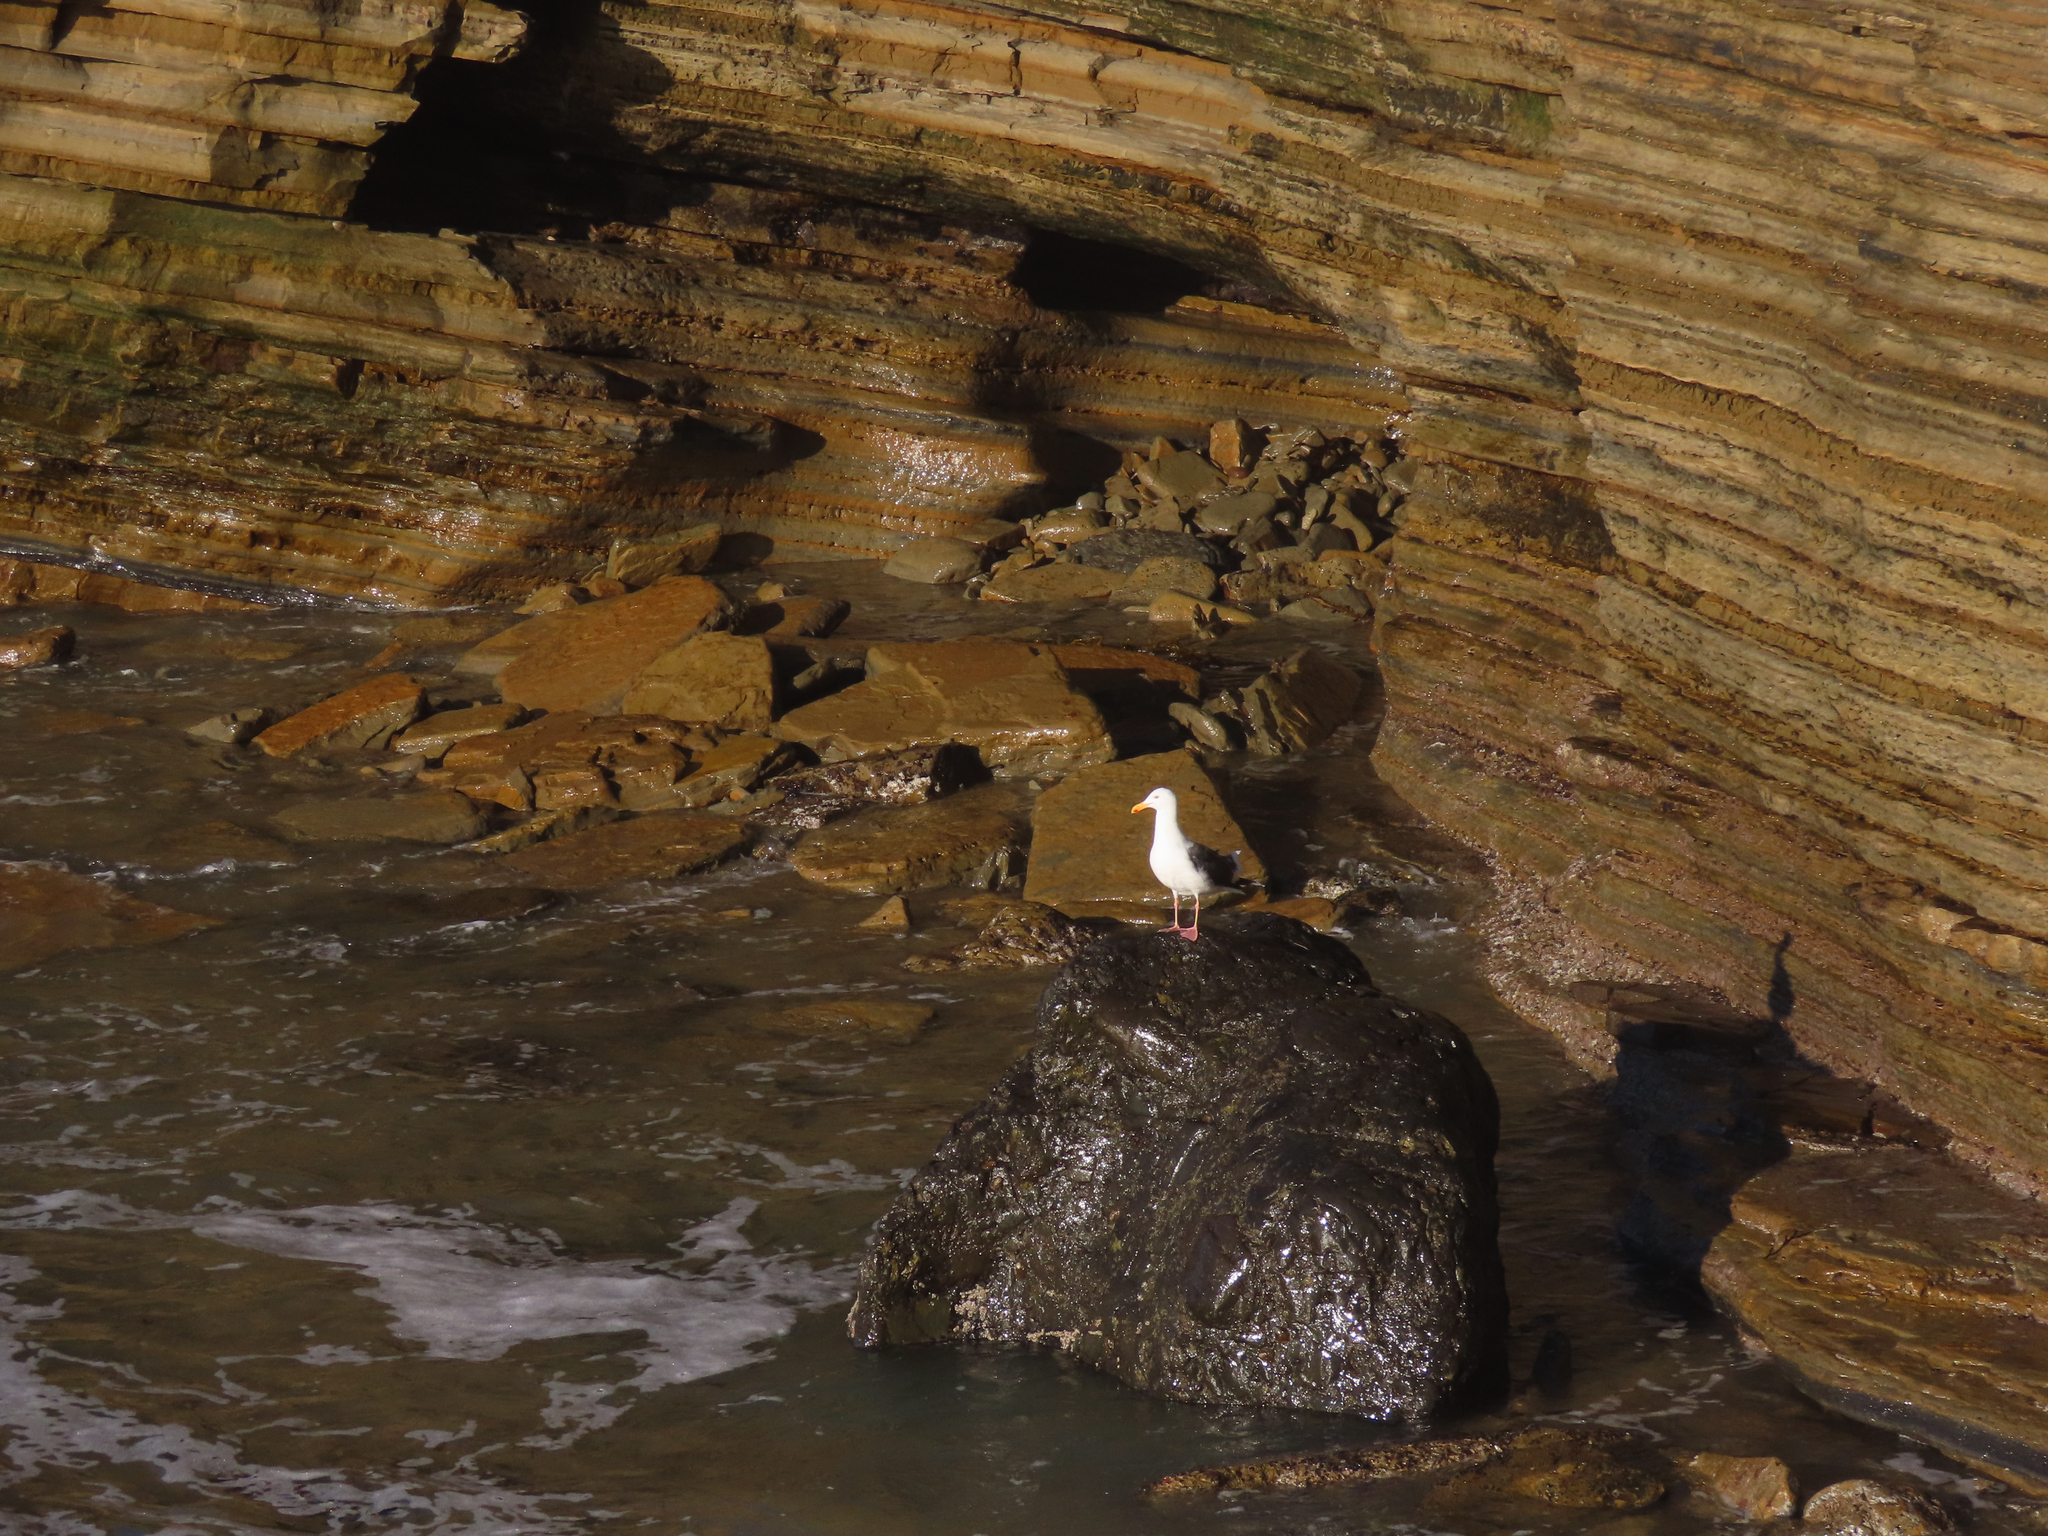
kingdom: Animalia
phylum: Chordata
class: Aves
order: Charadriiformes
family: Laridae
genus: Larus
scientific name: Larus occidentalis
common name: Western gull
